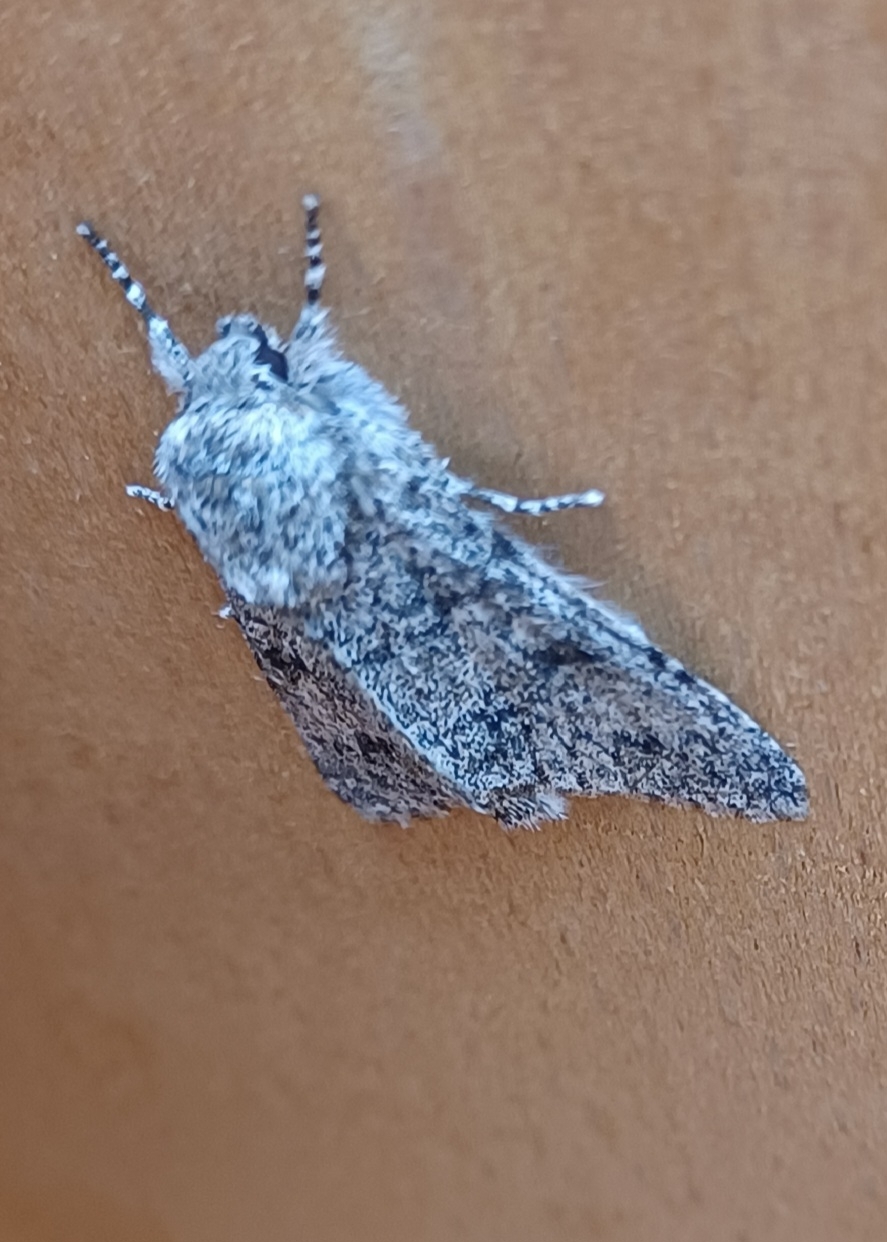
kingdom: Animalia
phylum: Arthropoda
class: Insecta
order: Lepidoptera
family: Noctuidae
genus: Acronicta
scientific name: Acronicta megacephala
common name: Poplar grey
